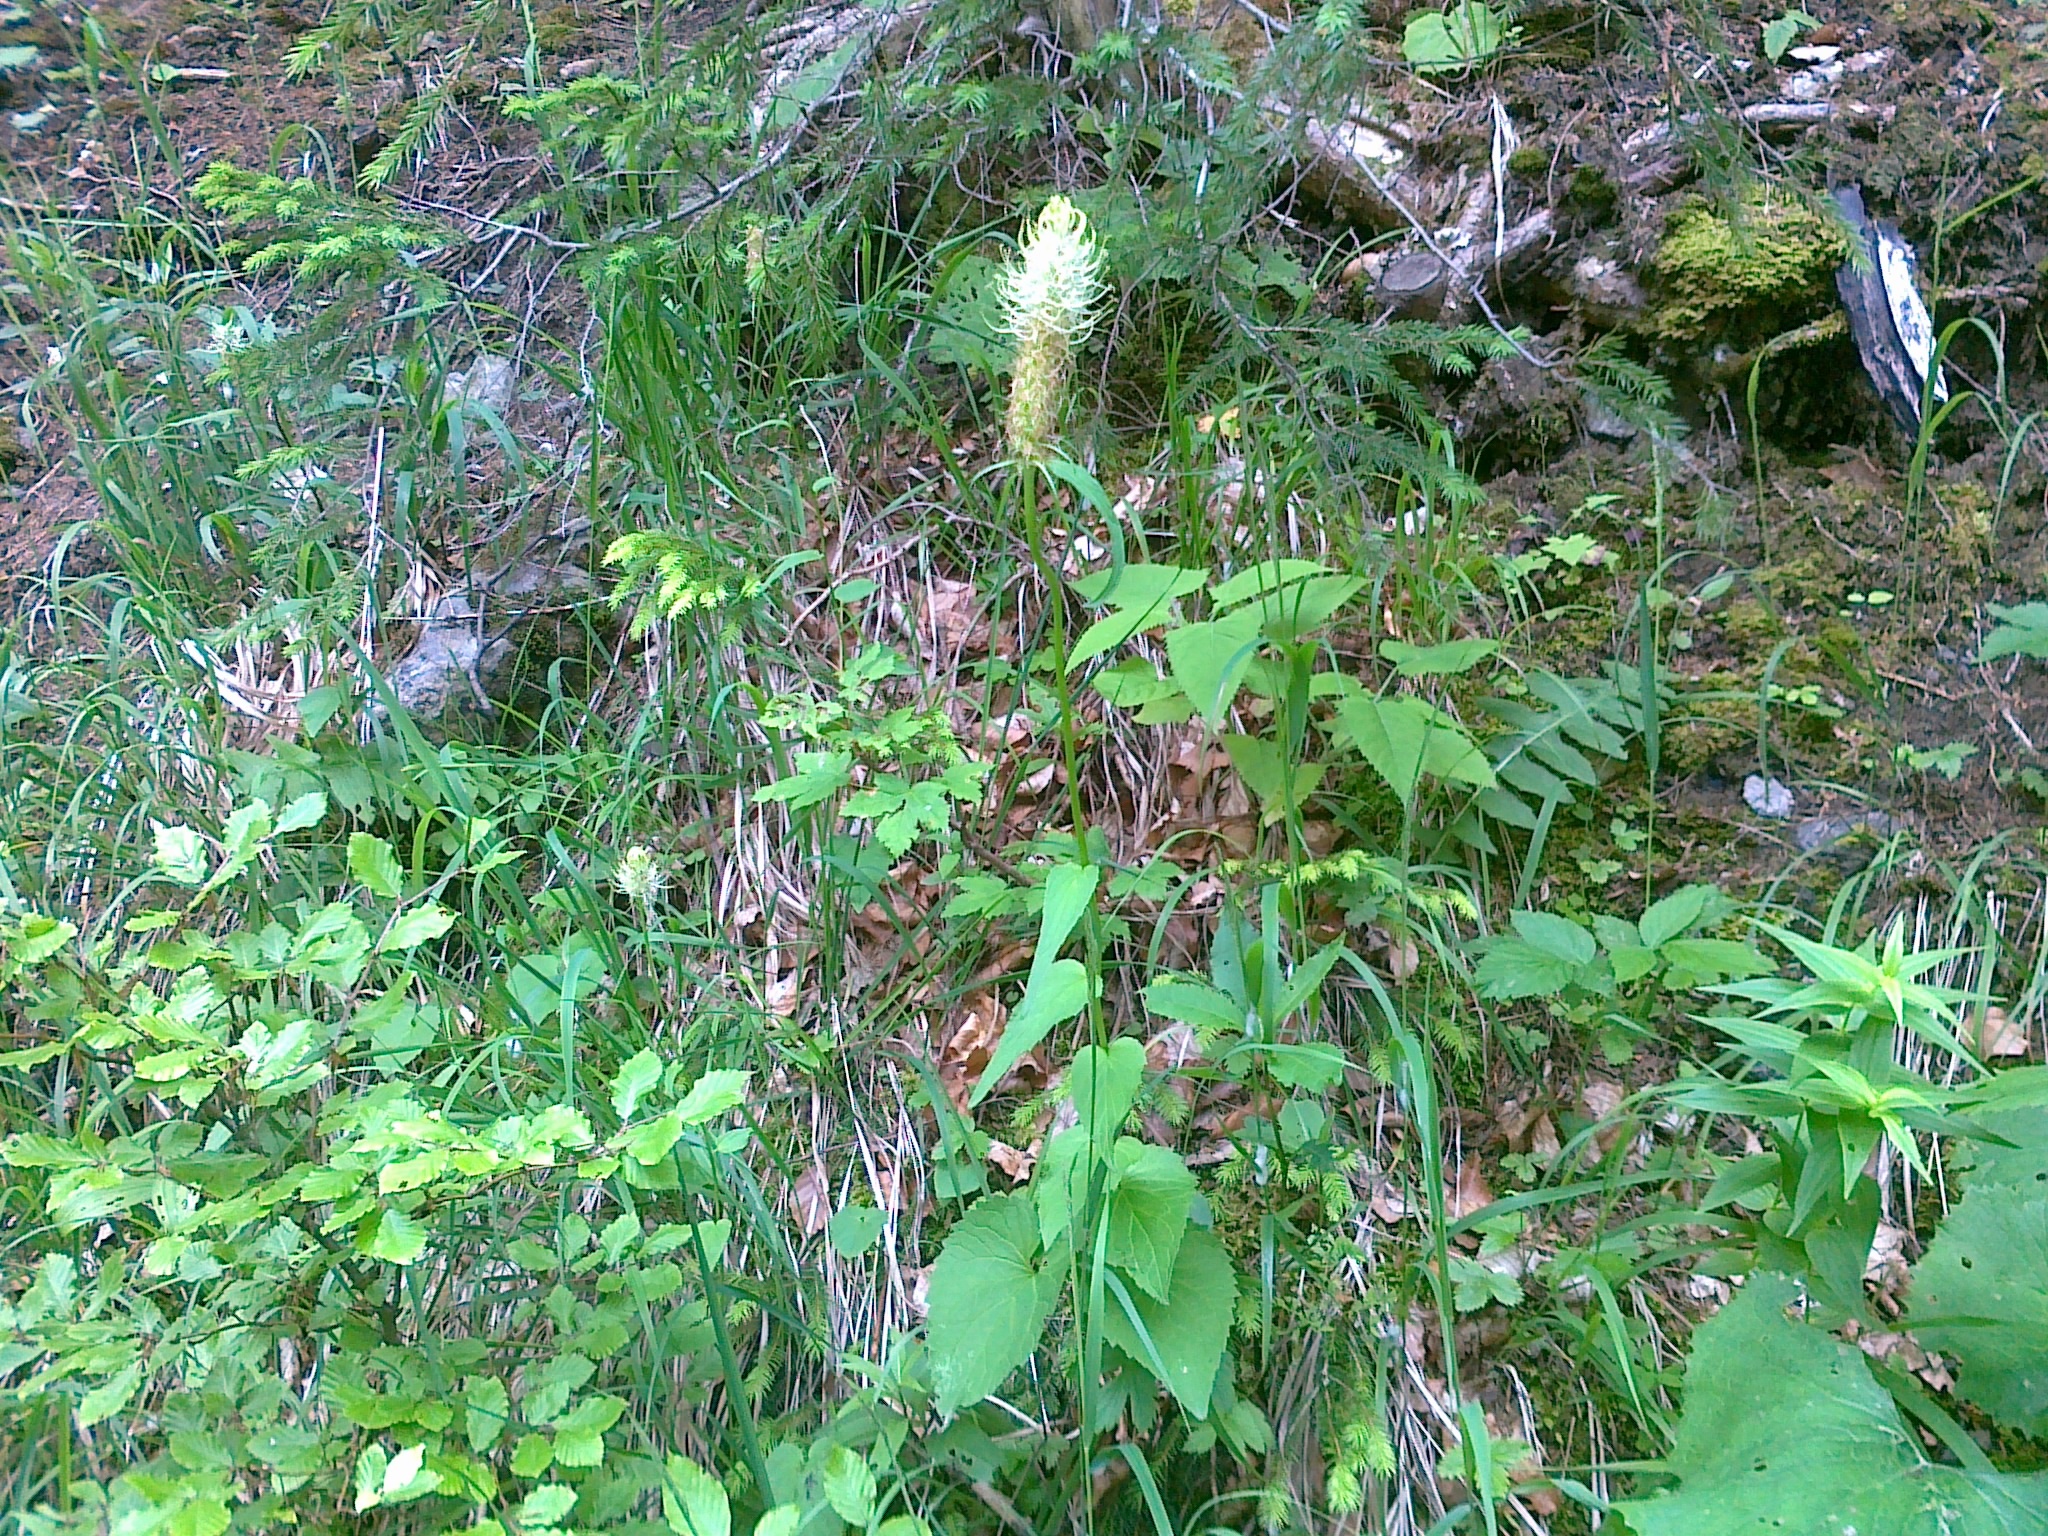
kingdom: Plantae
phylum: Tracheophyta
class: Magnoliopsida
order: Asterales
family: Campanulaceae
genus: Phyteuma
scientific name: Phyteuma spicatum
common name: Spiked rampion
